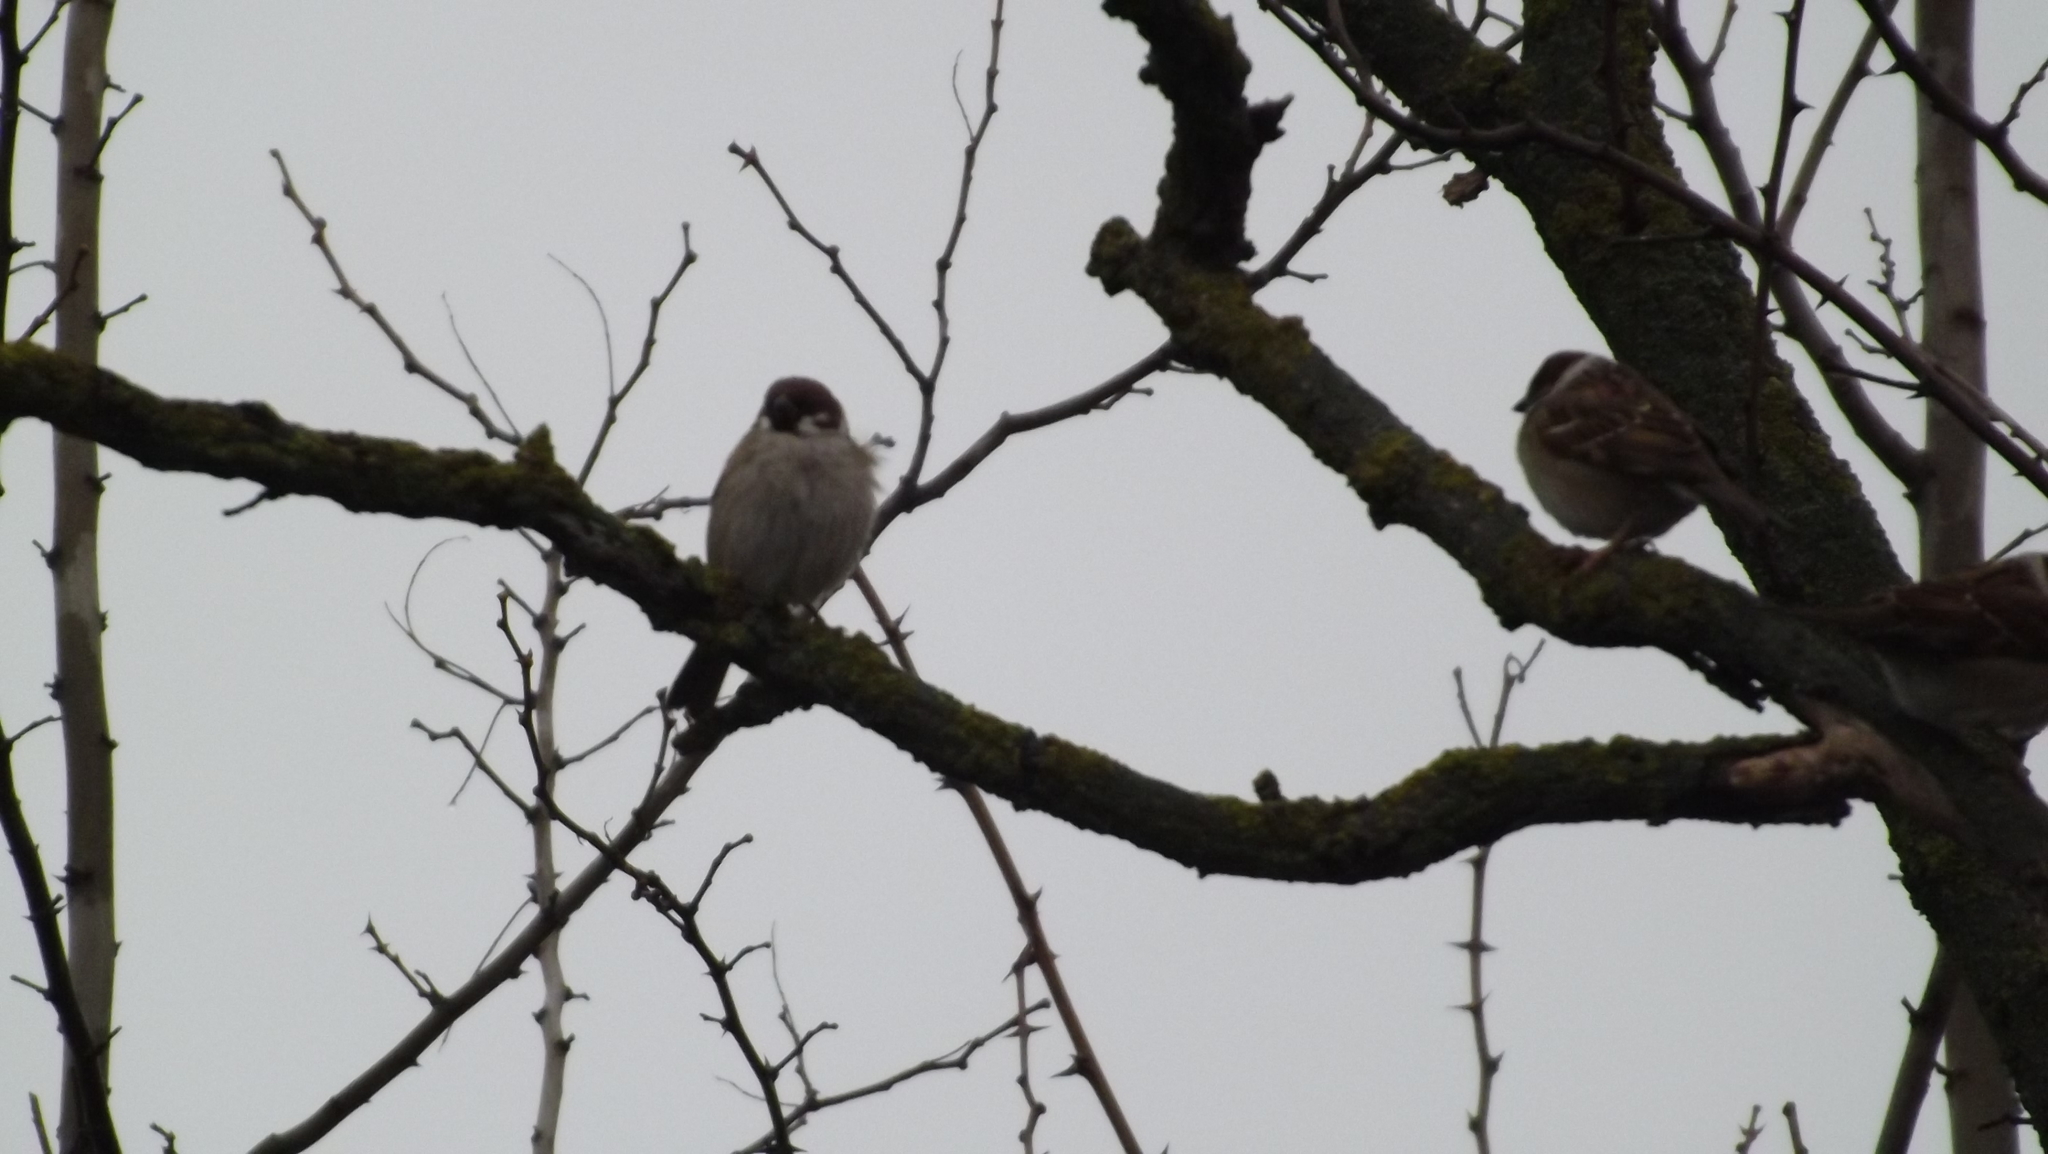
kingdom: Animalia
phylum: Chordata
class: Aves
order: Passeriformes
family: Passeridae
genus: Passer
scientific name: Passer montanus
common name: Eurasian tree sparrow
